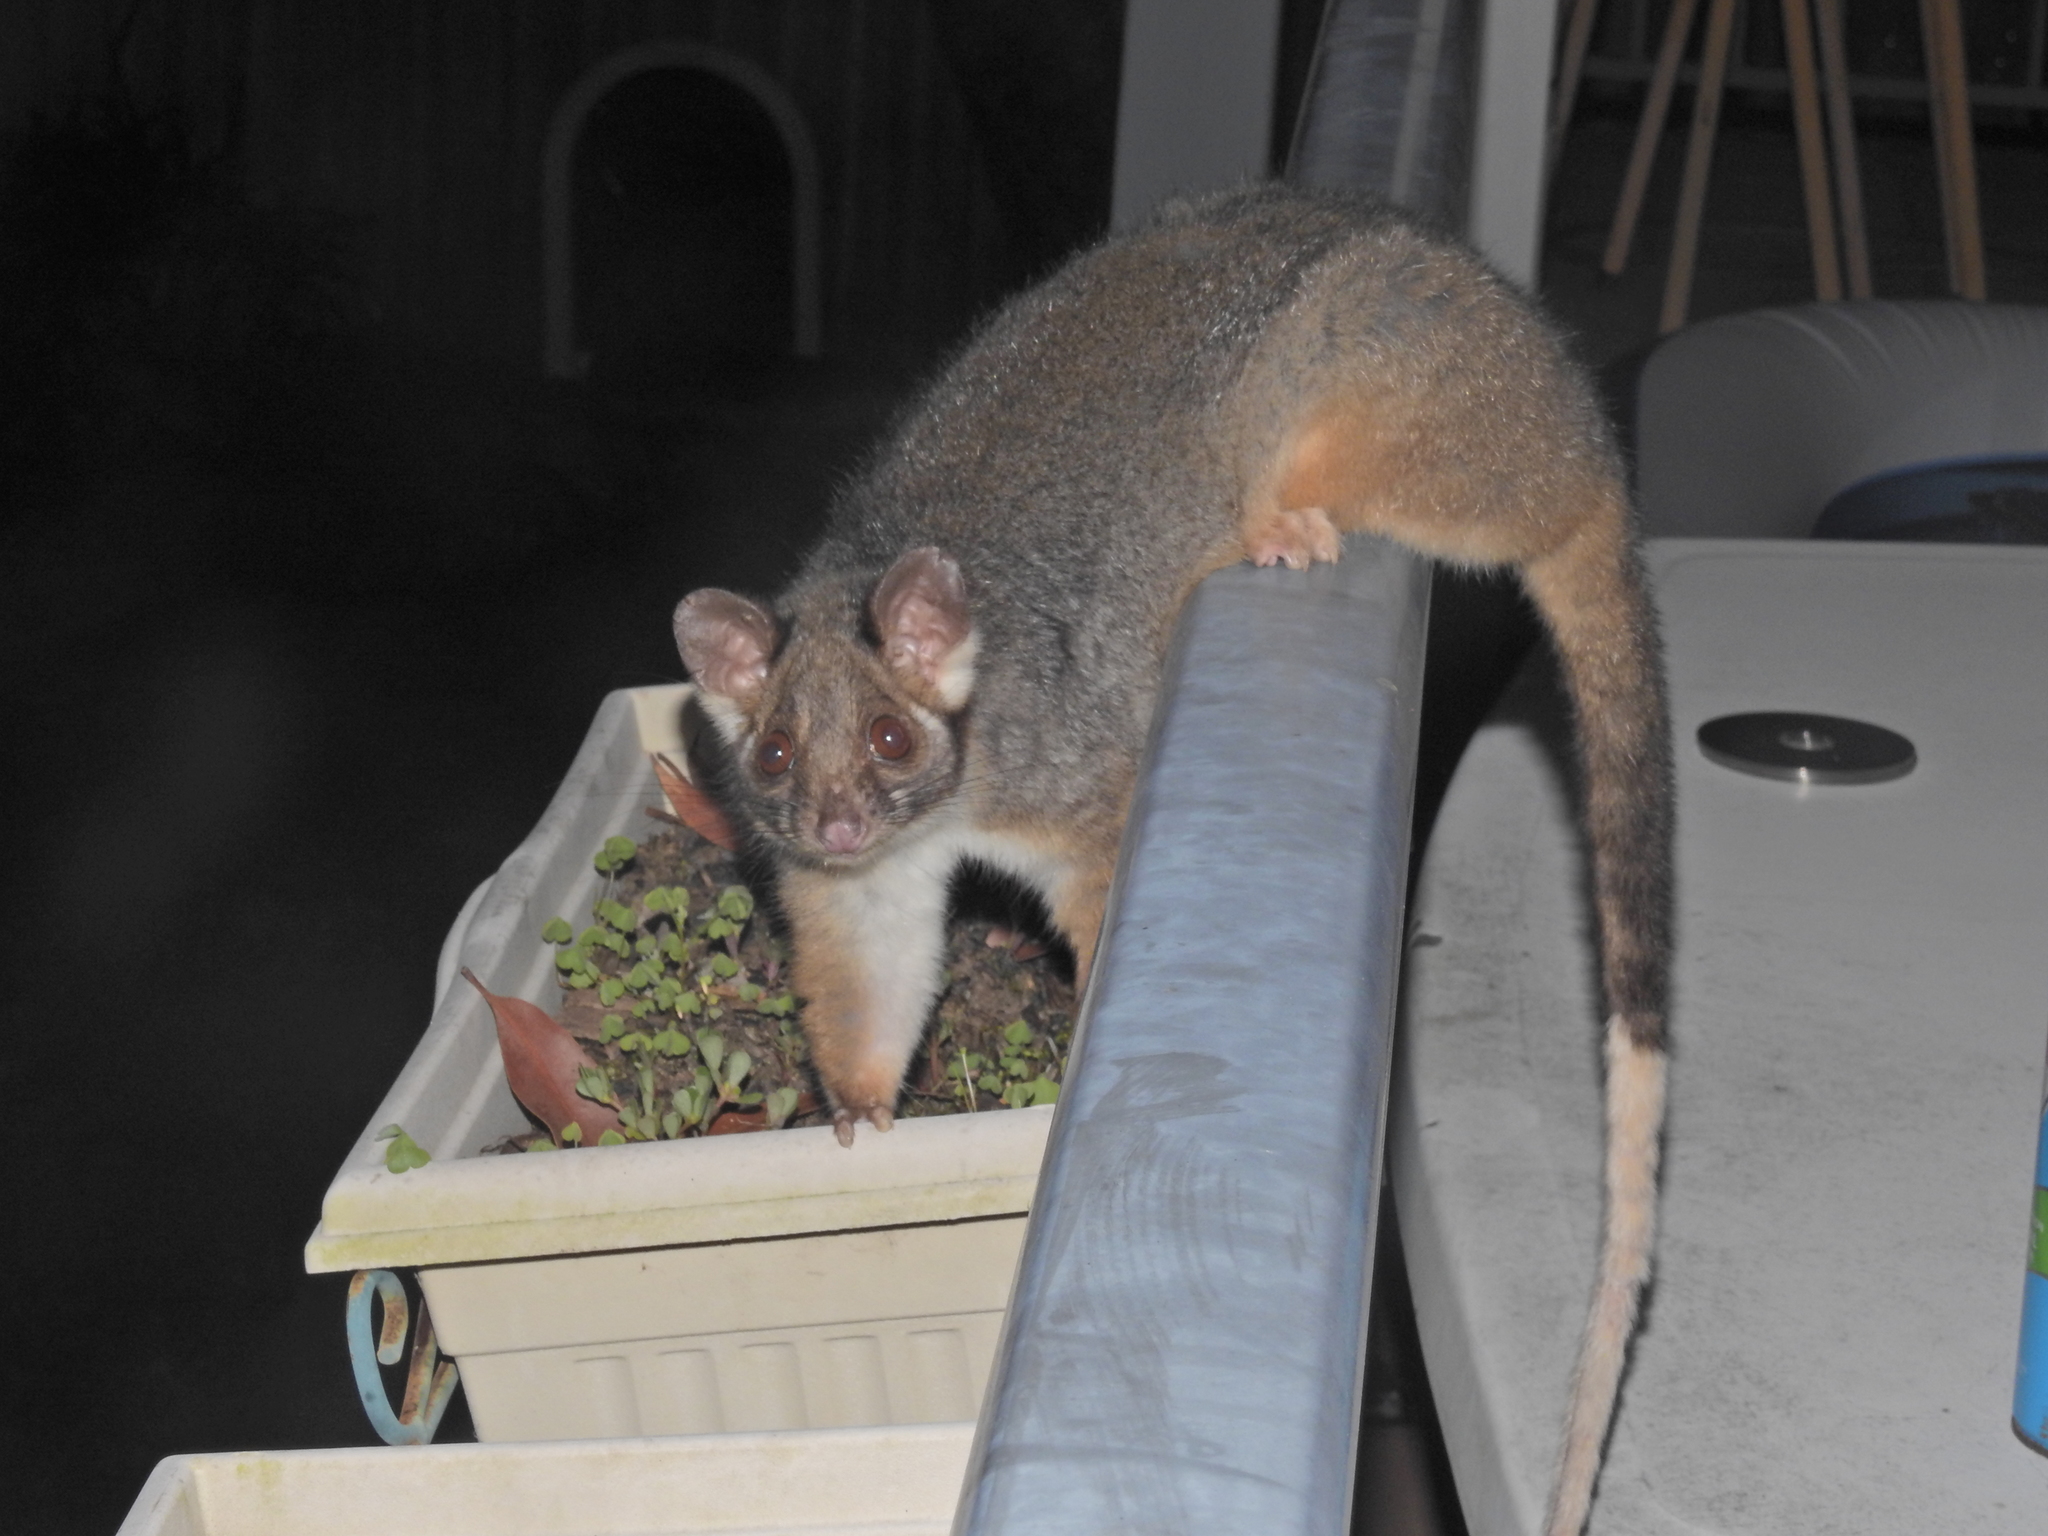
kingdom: Animalia
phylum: Chordata
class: Mammalia
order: Diprotodontia
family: Pseudocheiridae
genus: Pseudocheirus
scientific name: Pseudocheirus peregrinus
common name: Common ringtail possum
